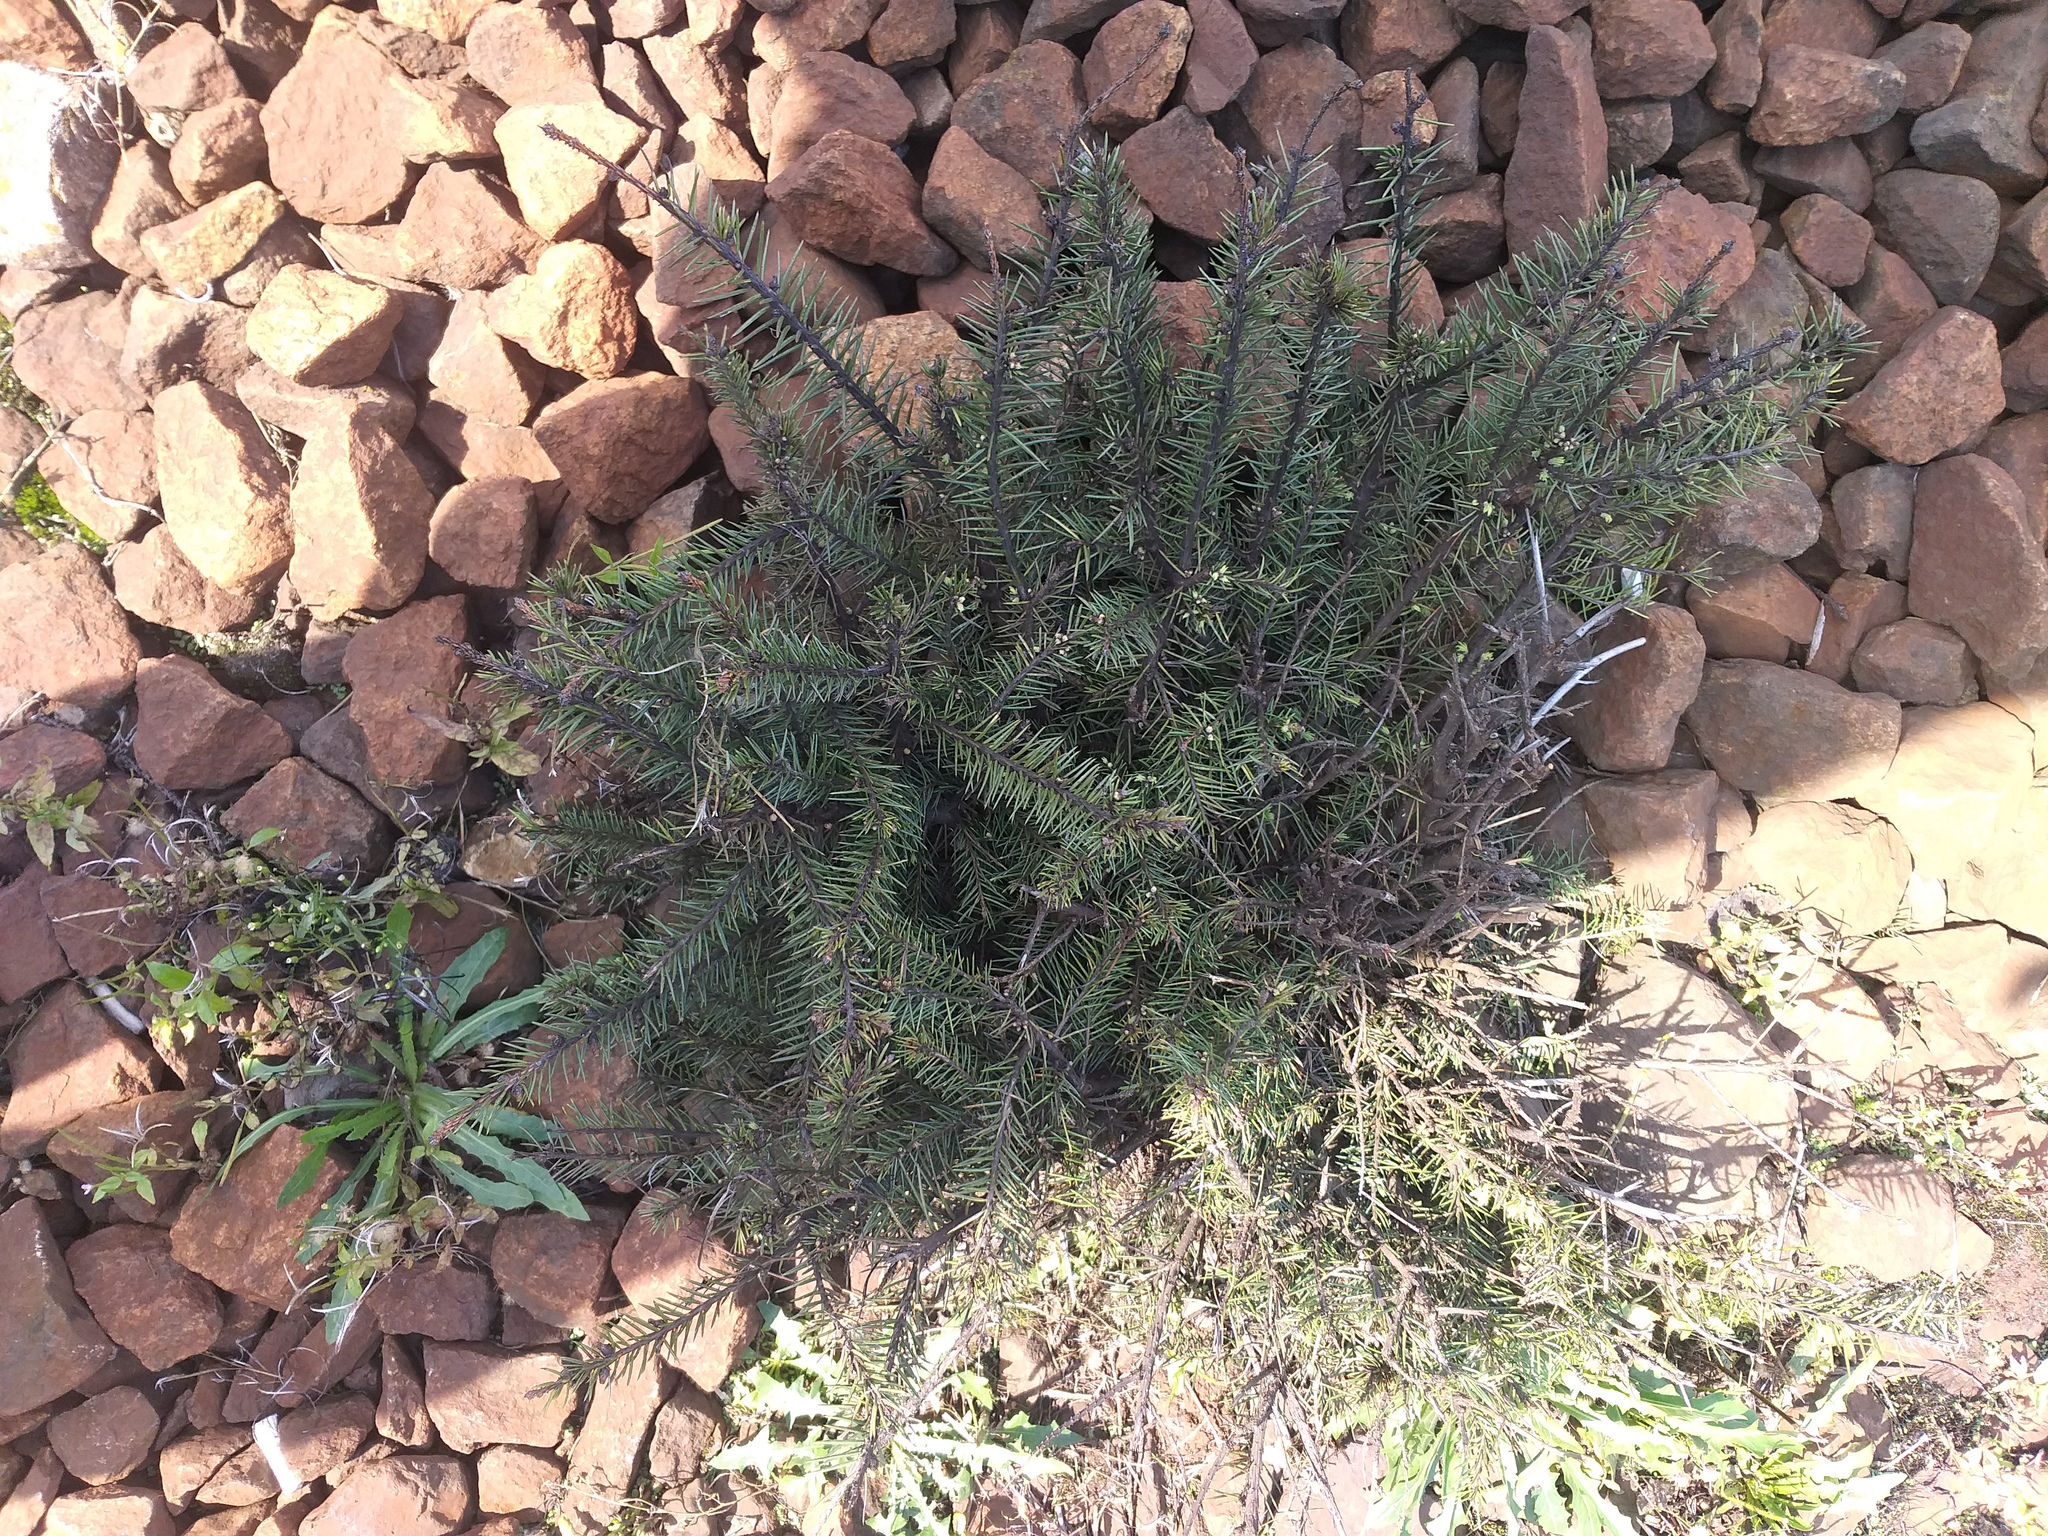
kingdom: Plantae
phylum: Tracheophyta
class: Pinopsida
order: Pinales
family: Pinaceae
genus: Picea
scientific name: Picea abies
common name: Norway spruce
